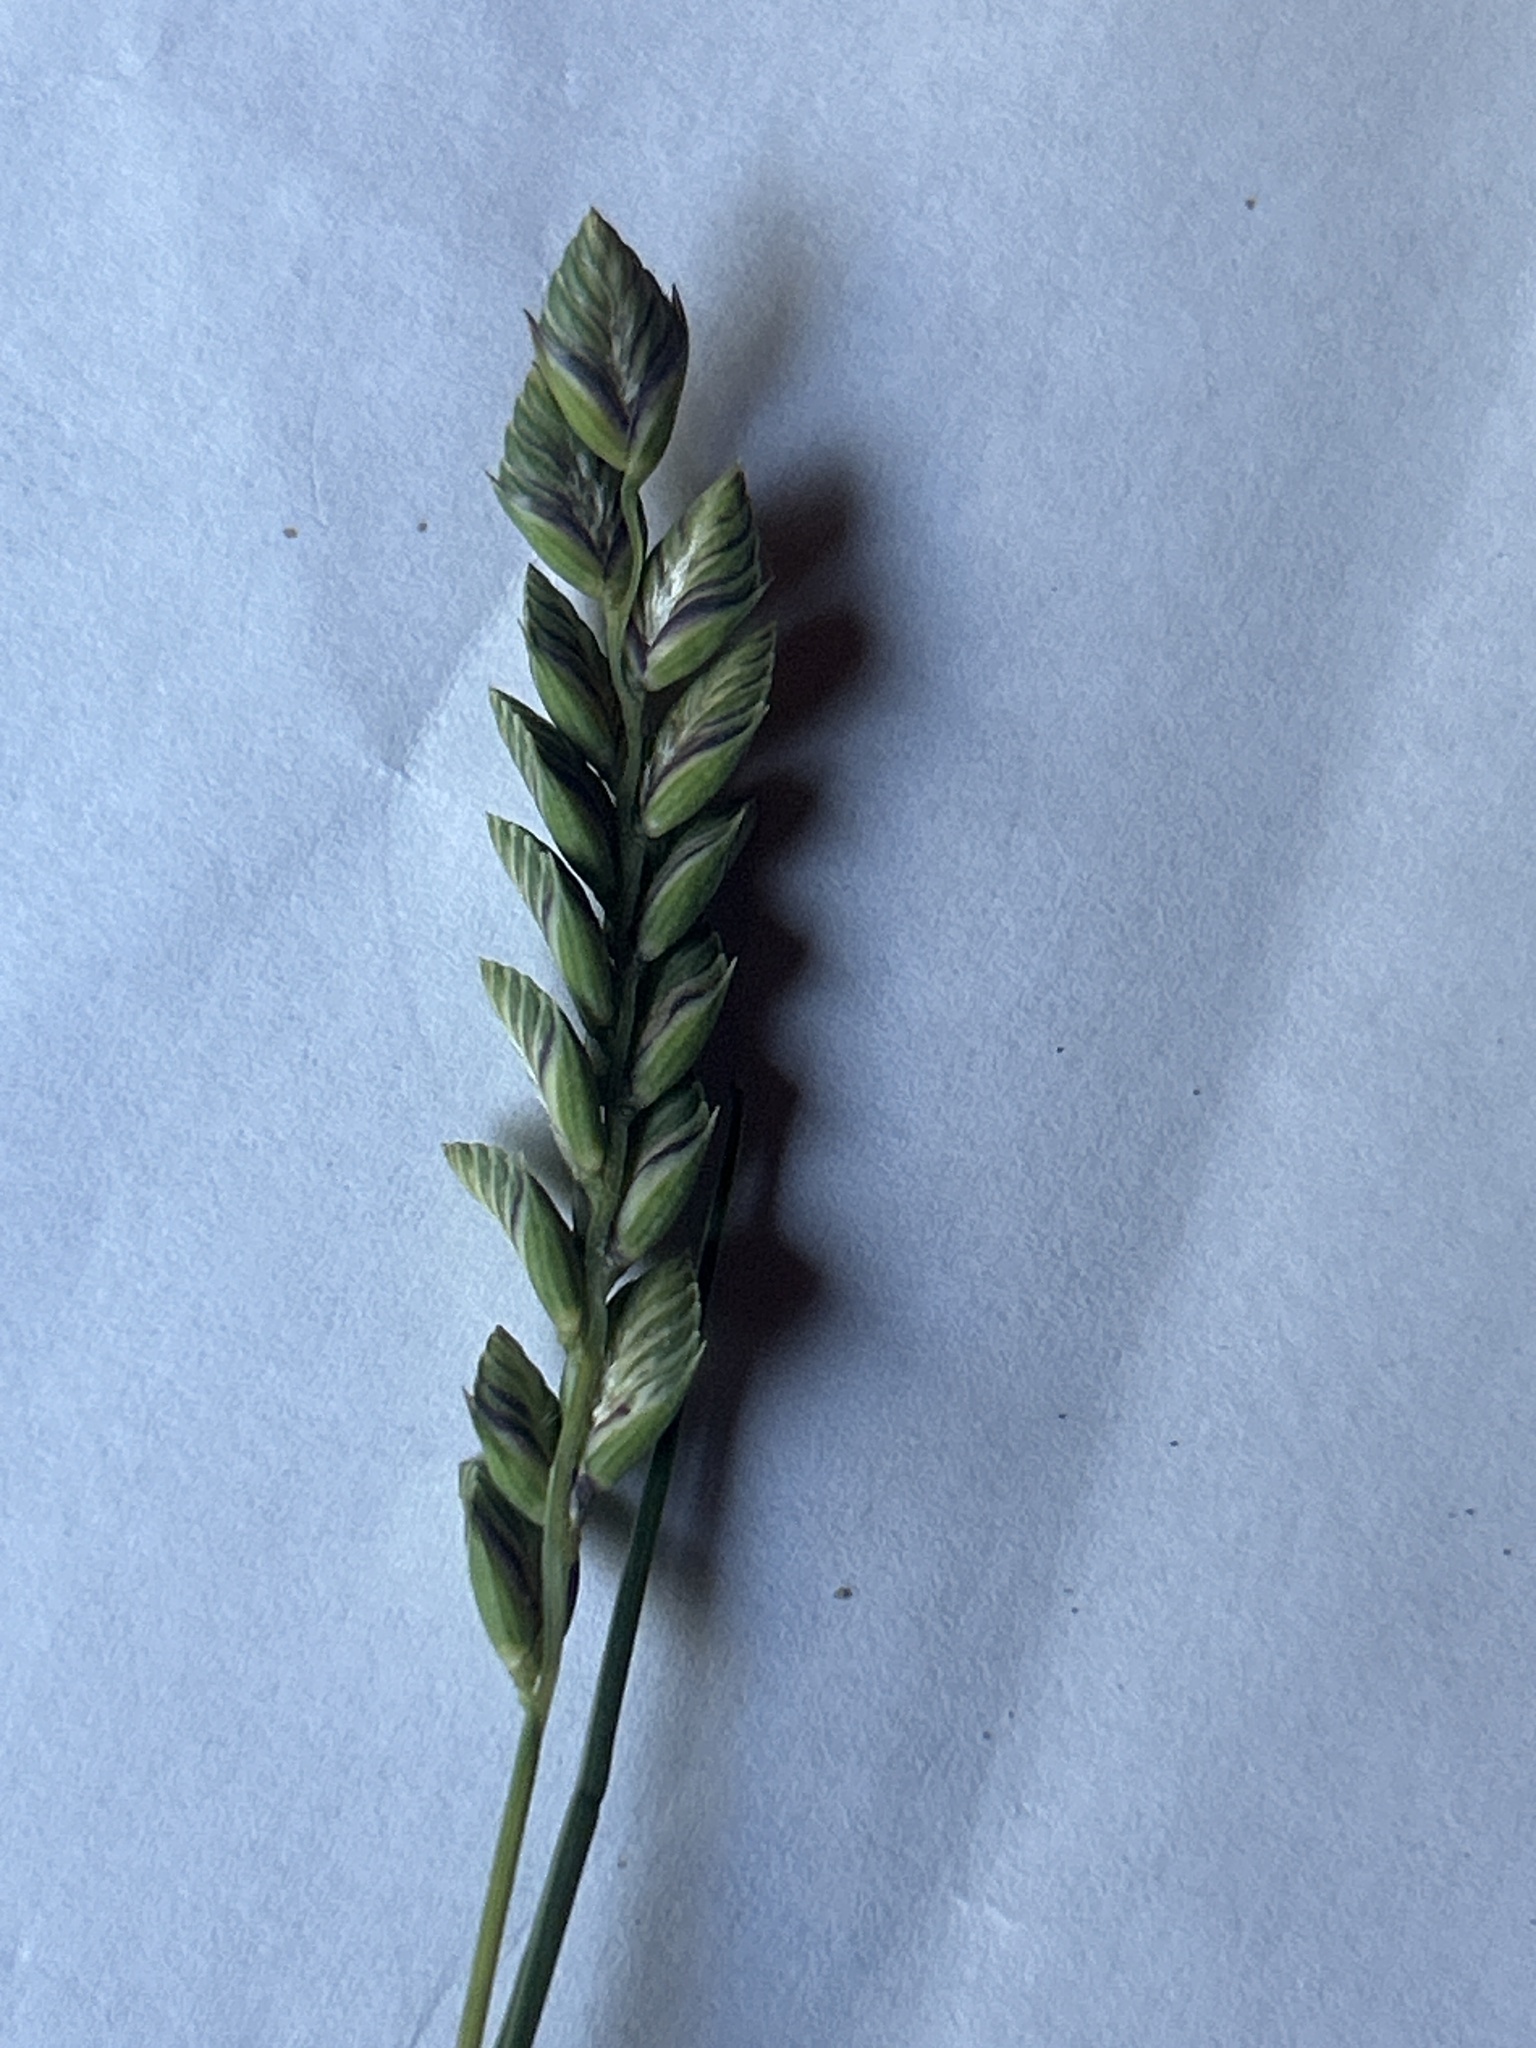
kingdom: Plantae
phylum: Tracheophyta
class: Liliopsida
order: Poales
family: Poaceae
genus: Tribolium
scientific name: Tribolium uniolae
